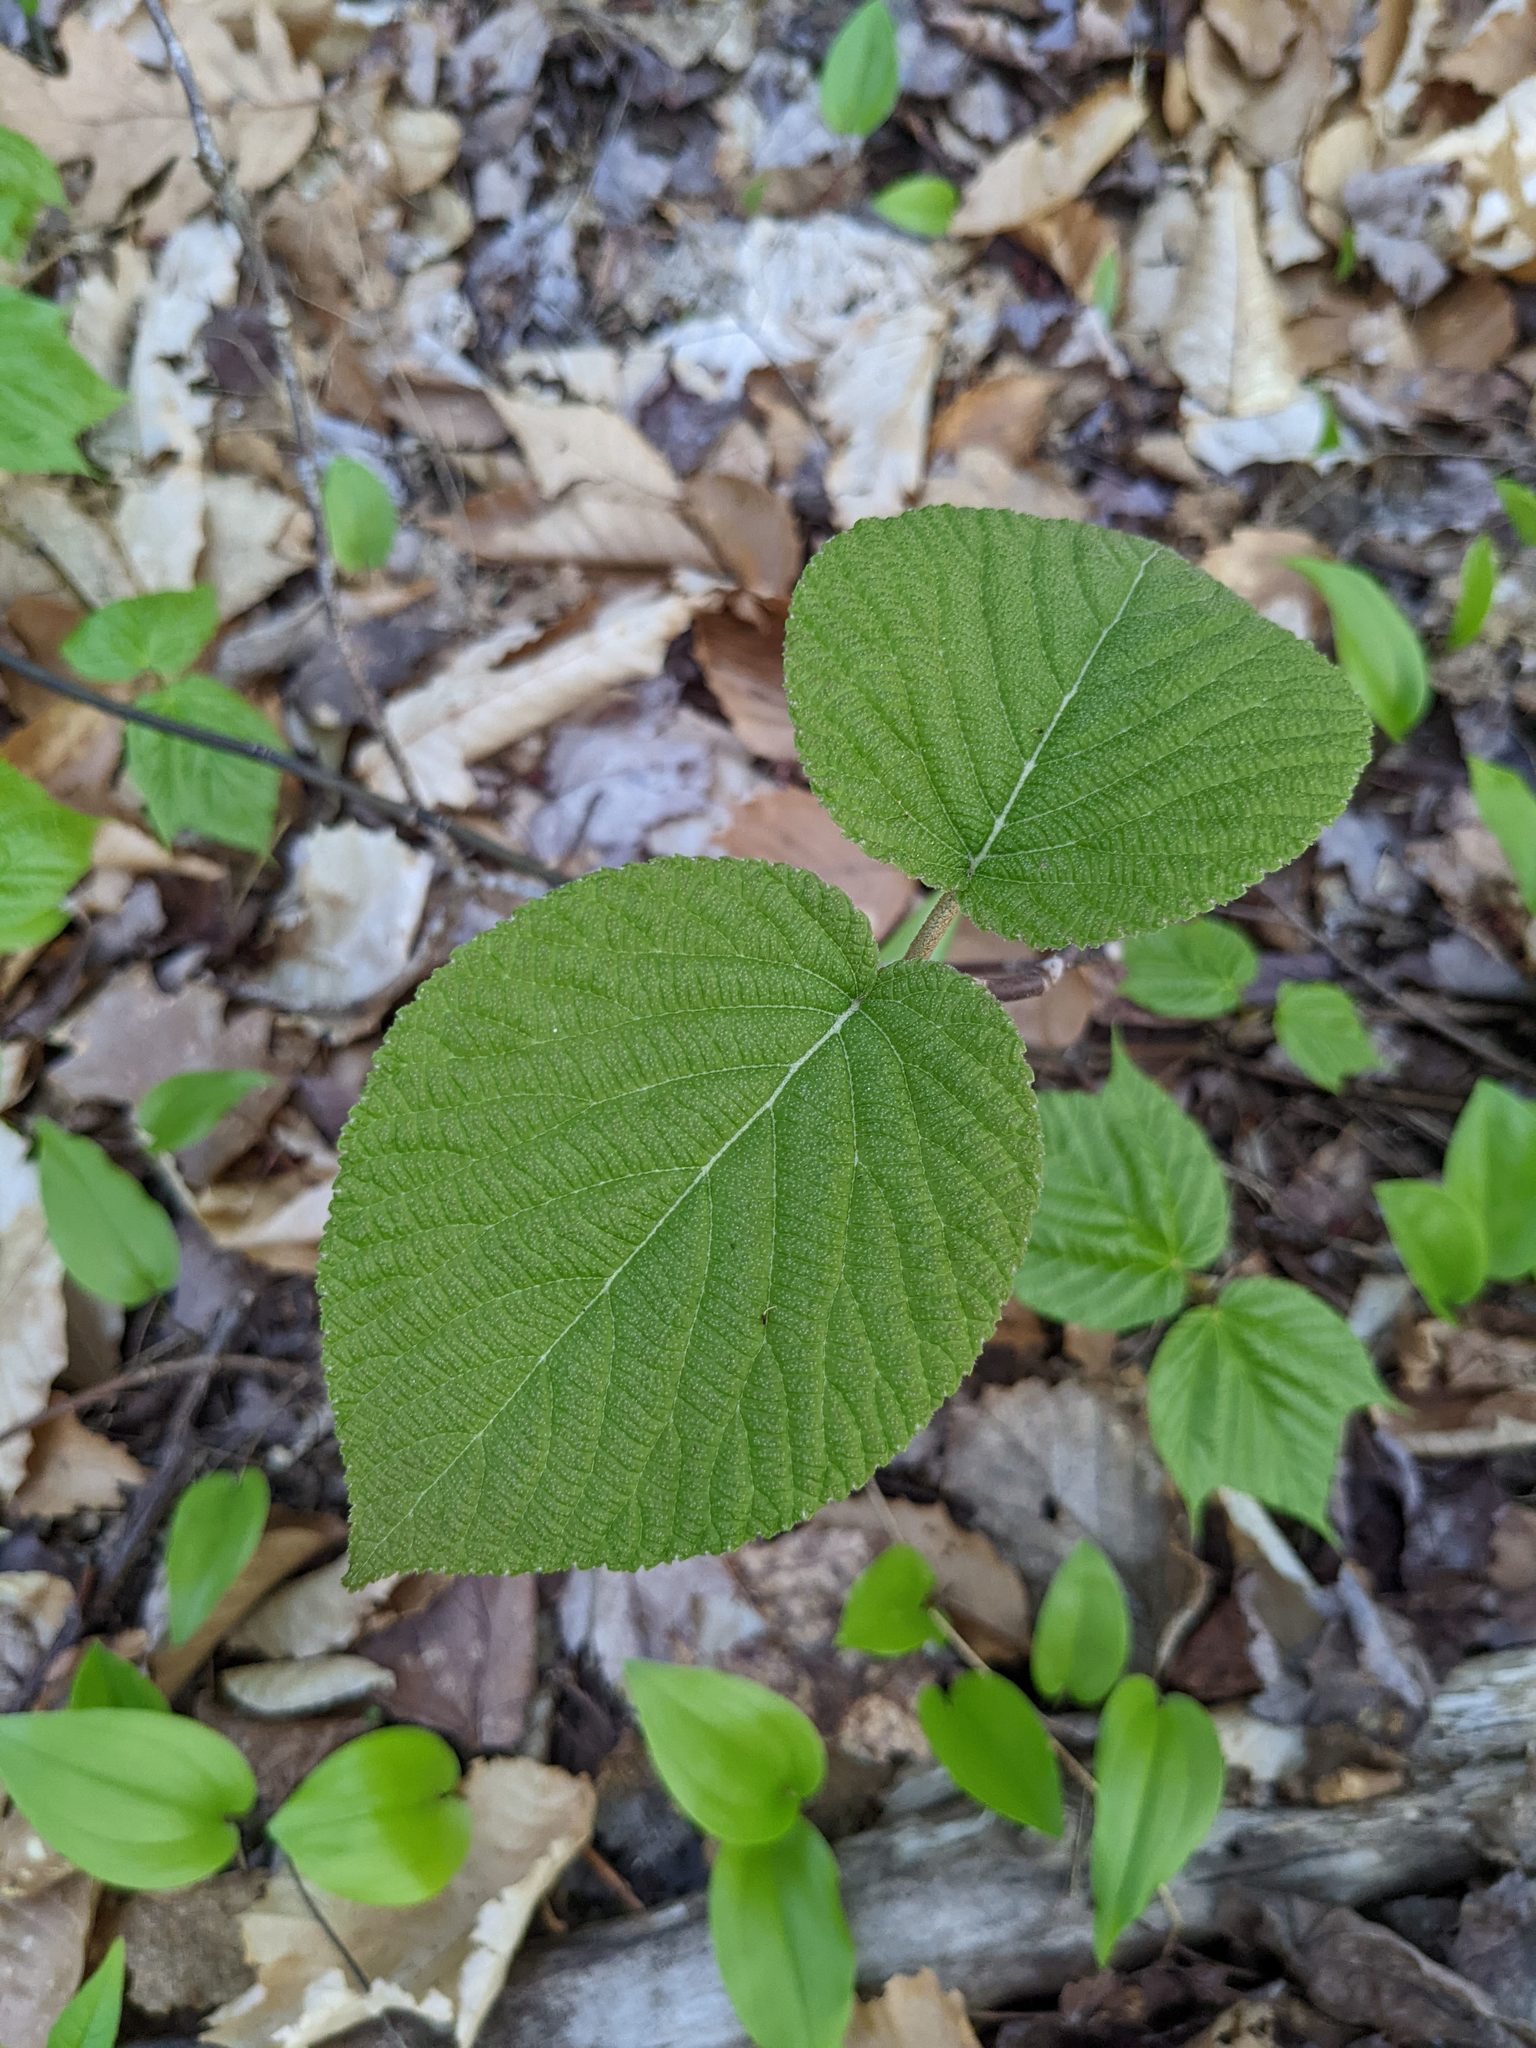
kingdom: Plantae
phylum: Tracheophyta
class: Magnoliopsida
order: Dipsacales
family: Viburnaceae
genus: Viburnum
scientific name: Viburnum lantanoides
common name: Hobblebush
